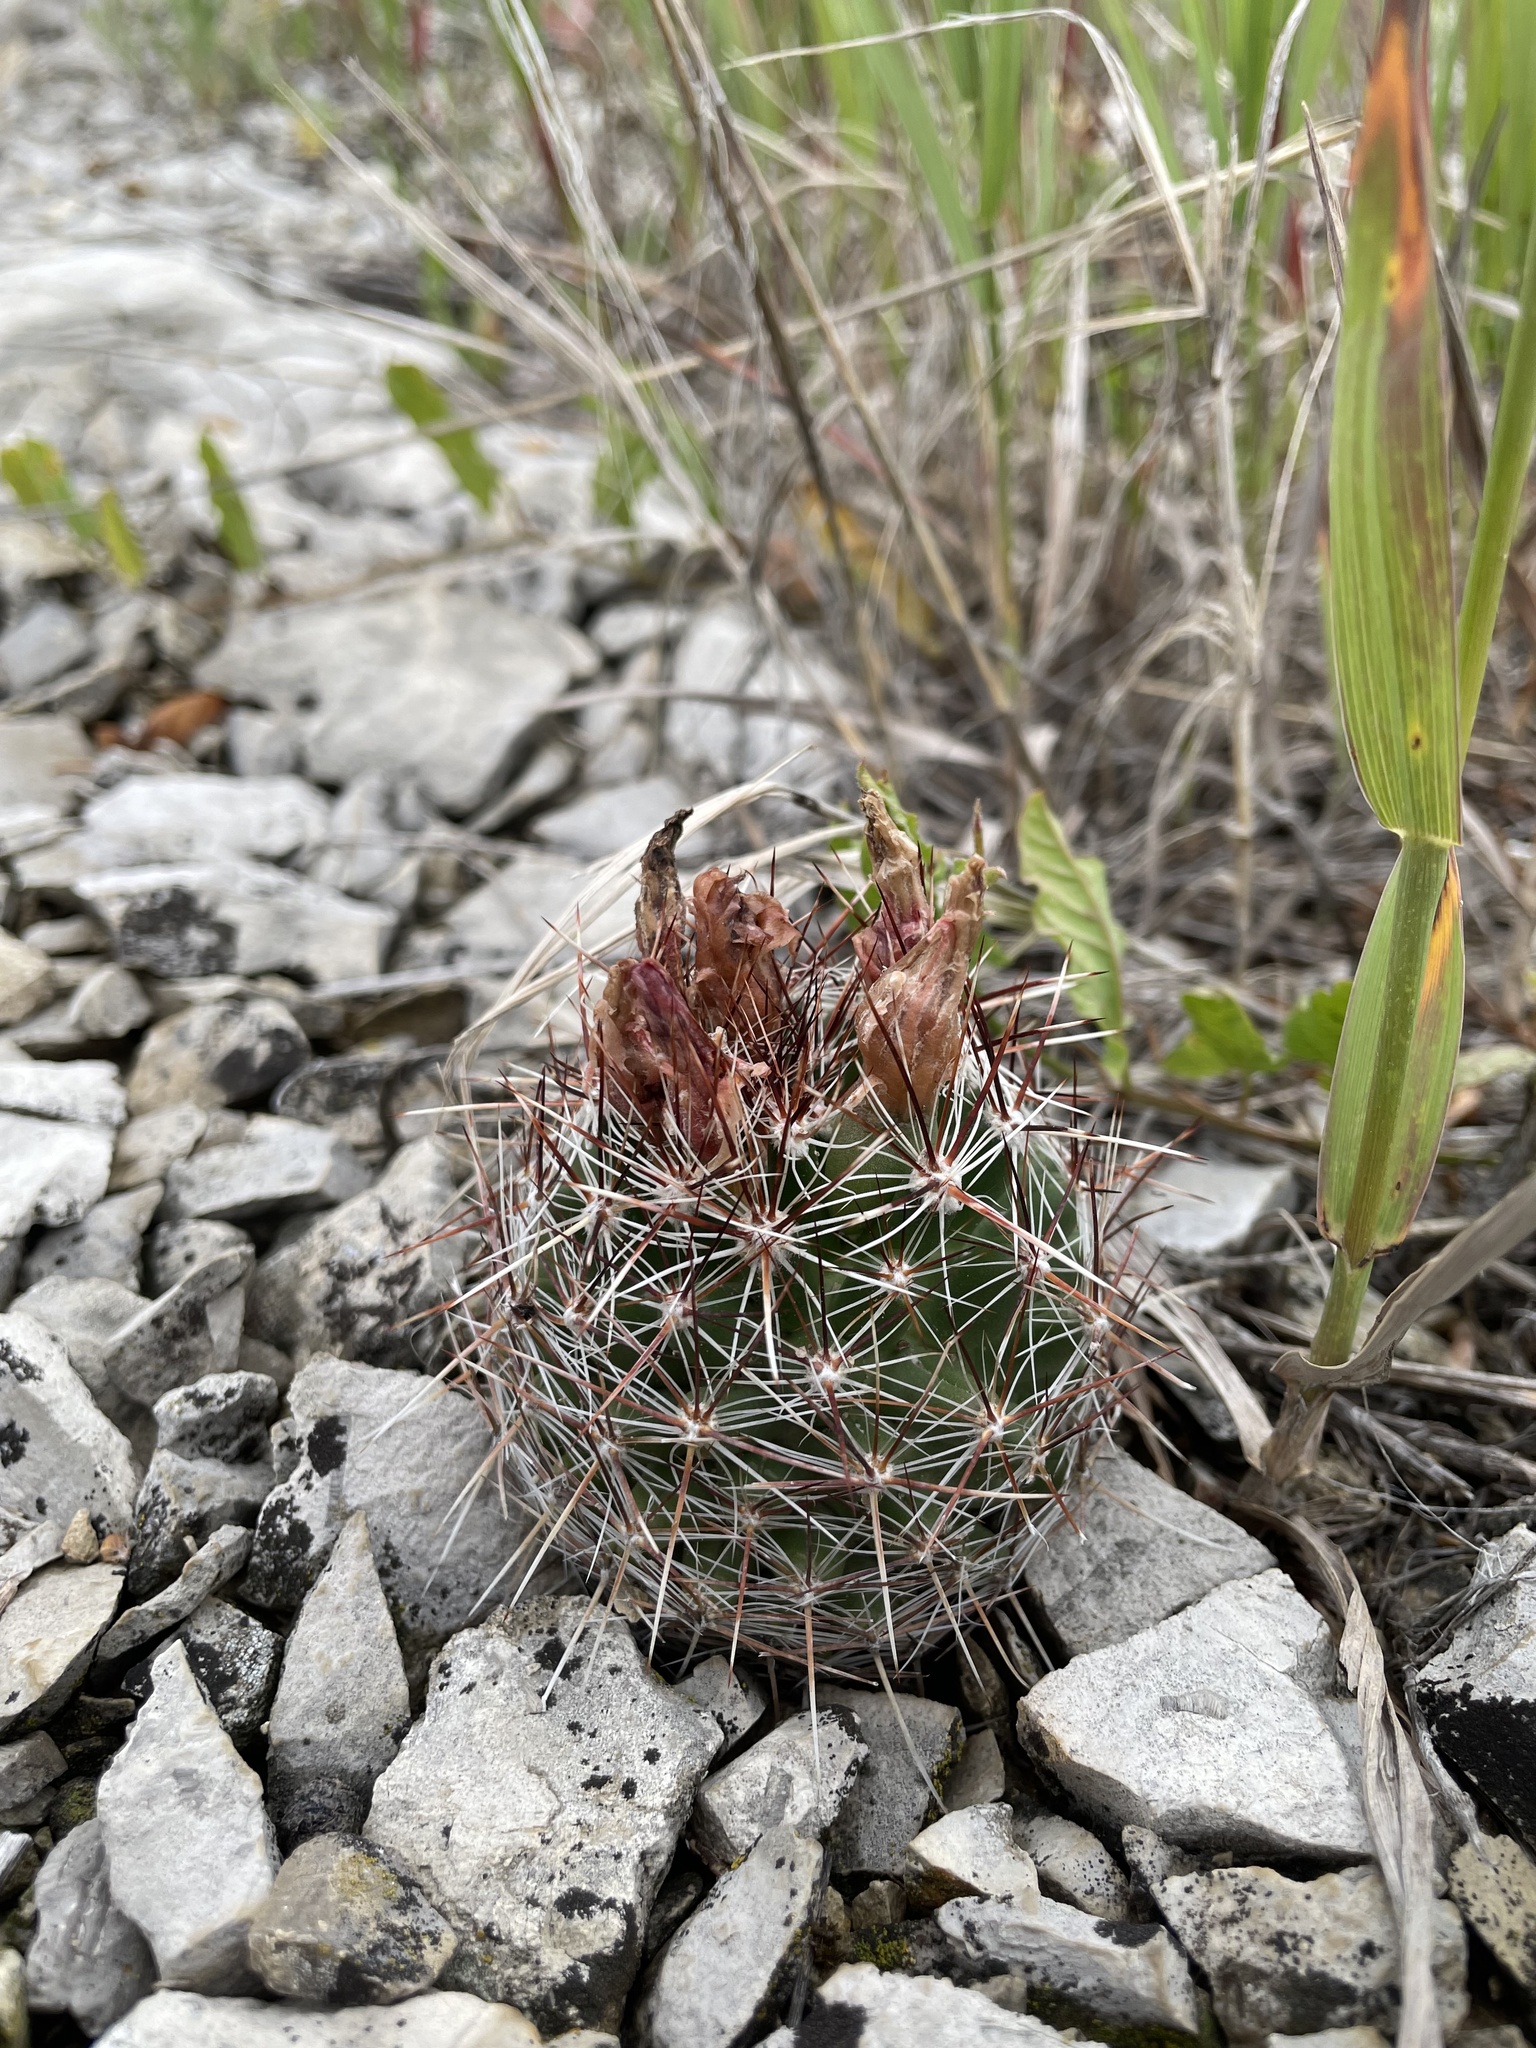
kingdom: Plantae
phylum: Tracheophyta
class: Magnoliopsida
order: Caryophyllales
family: Cactaceae
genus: Pelecyphora
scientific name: Pelecyphora vivipara
